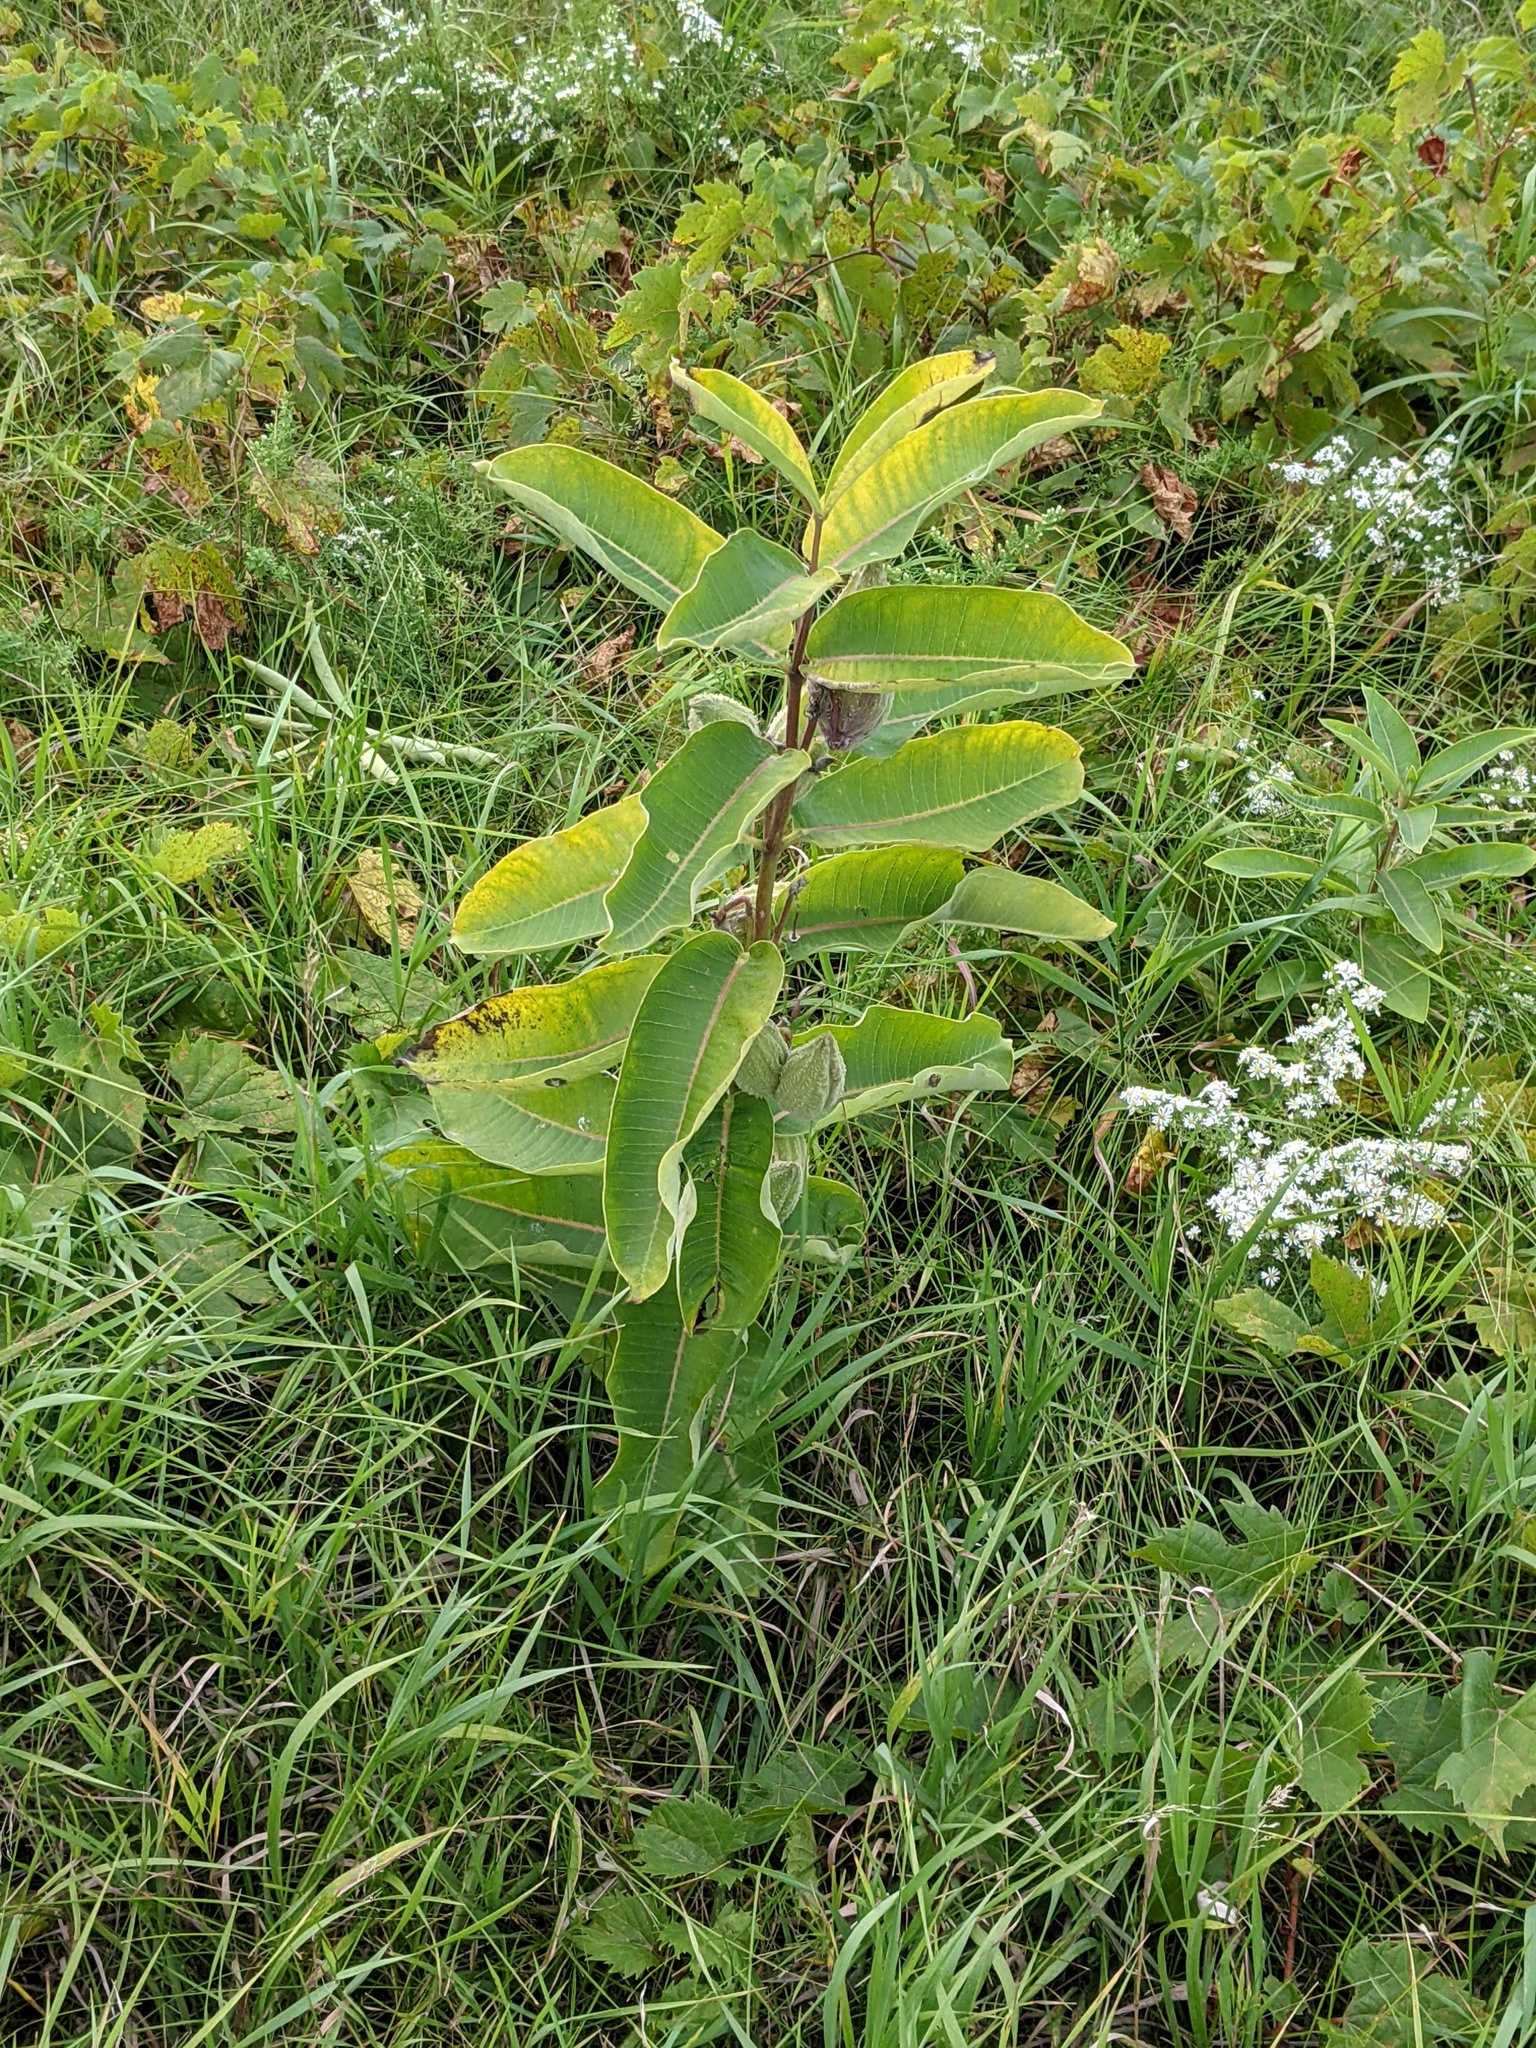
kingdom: Plantae
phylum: Tracheophyta
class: Magnoliopsida
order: Gentianales
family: Apocynaceae
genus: Asclepias
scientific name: Asclepias syriaca
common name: Common milkweed
